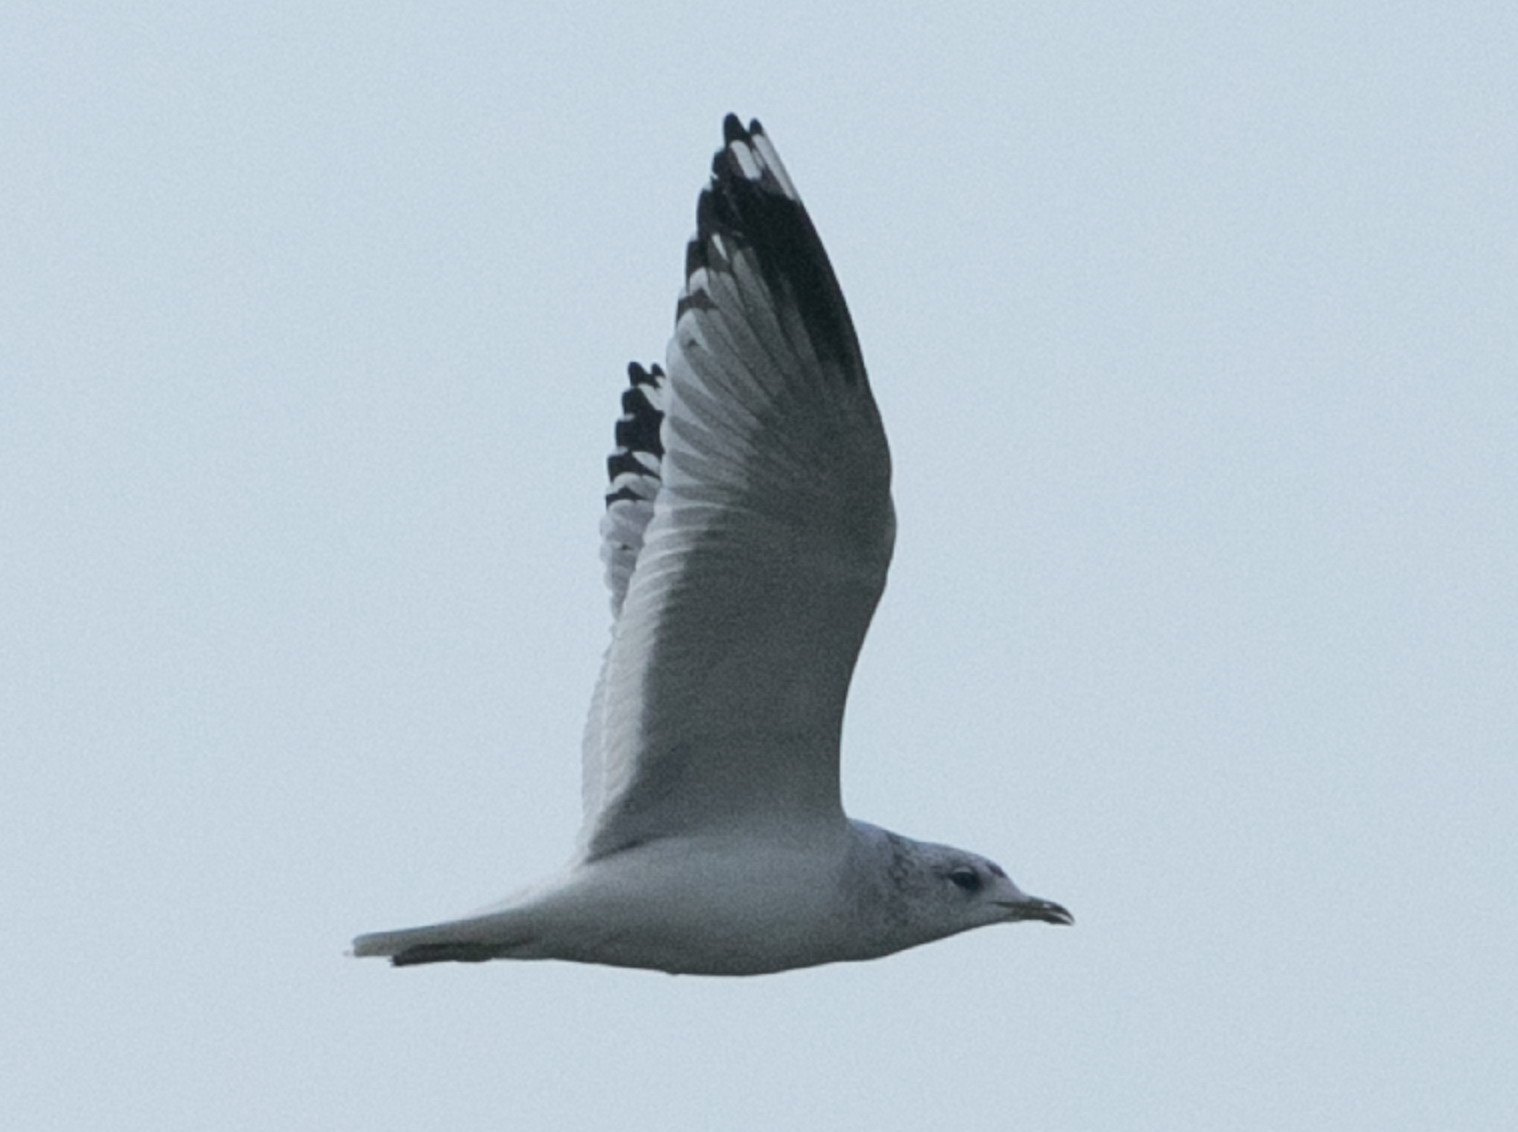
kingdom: Animalia
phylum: Chordata
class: Aves
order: Charadriiformes
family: Laridae
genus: Larus
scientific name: Larus canus
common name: Mew gull
